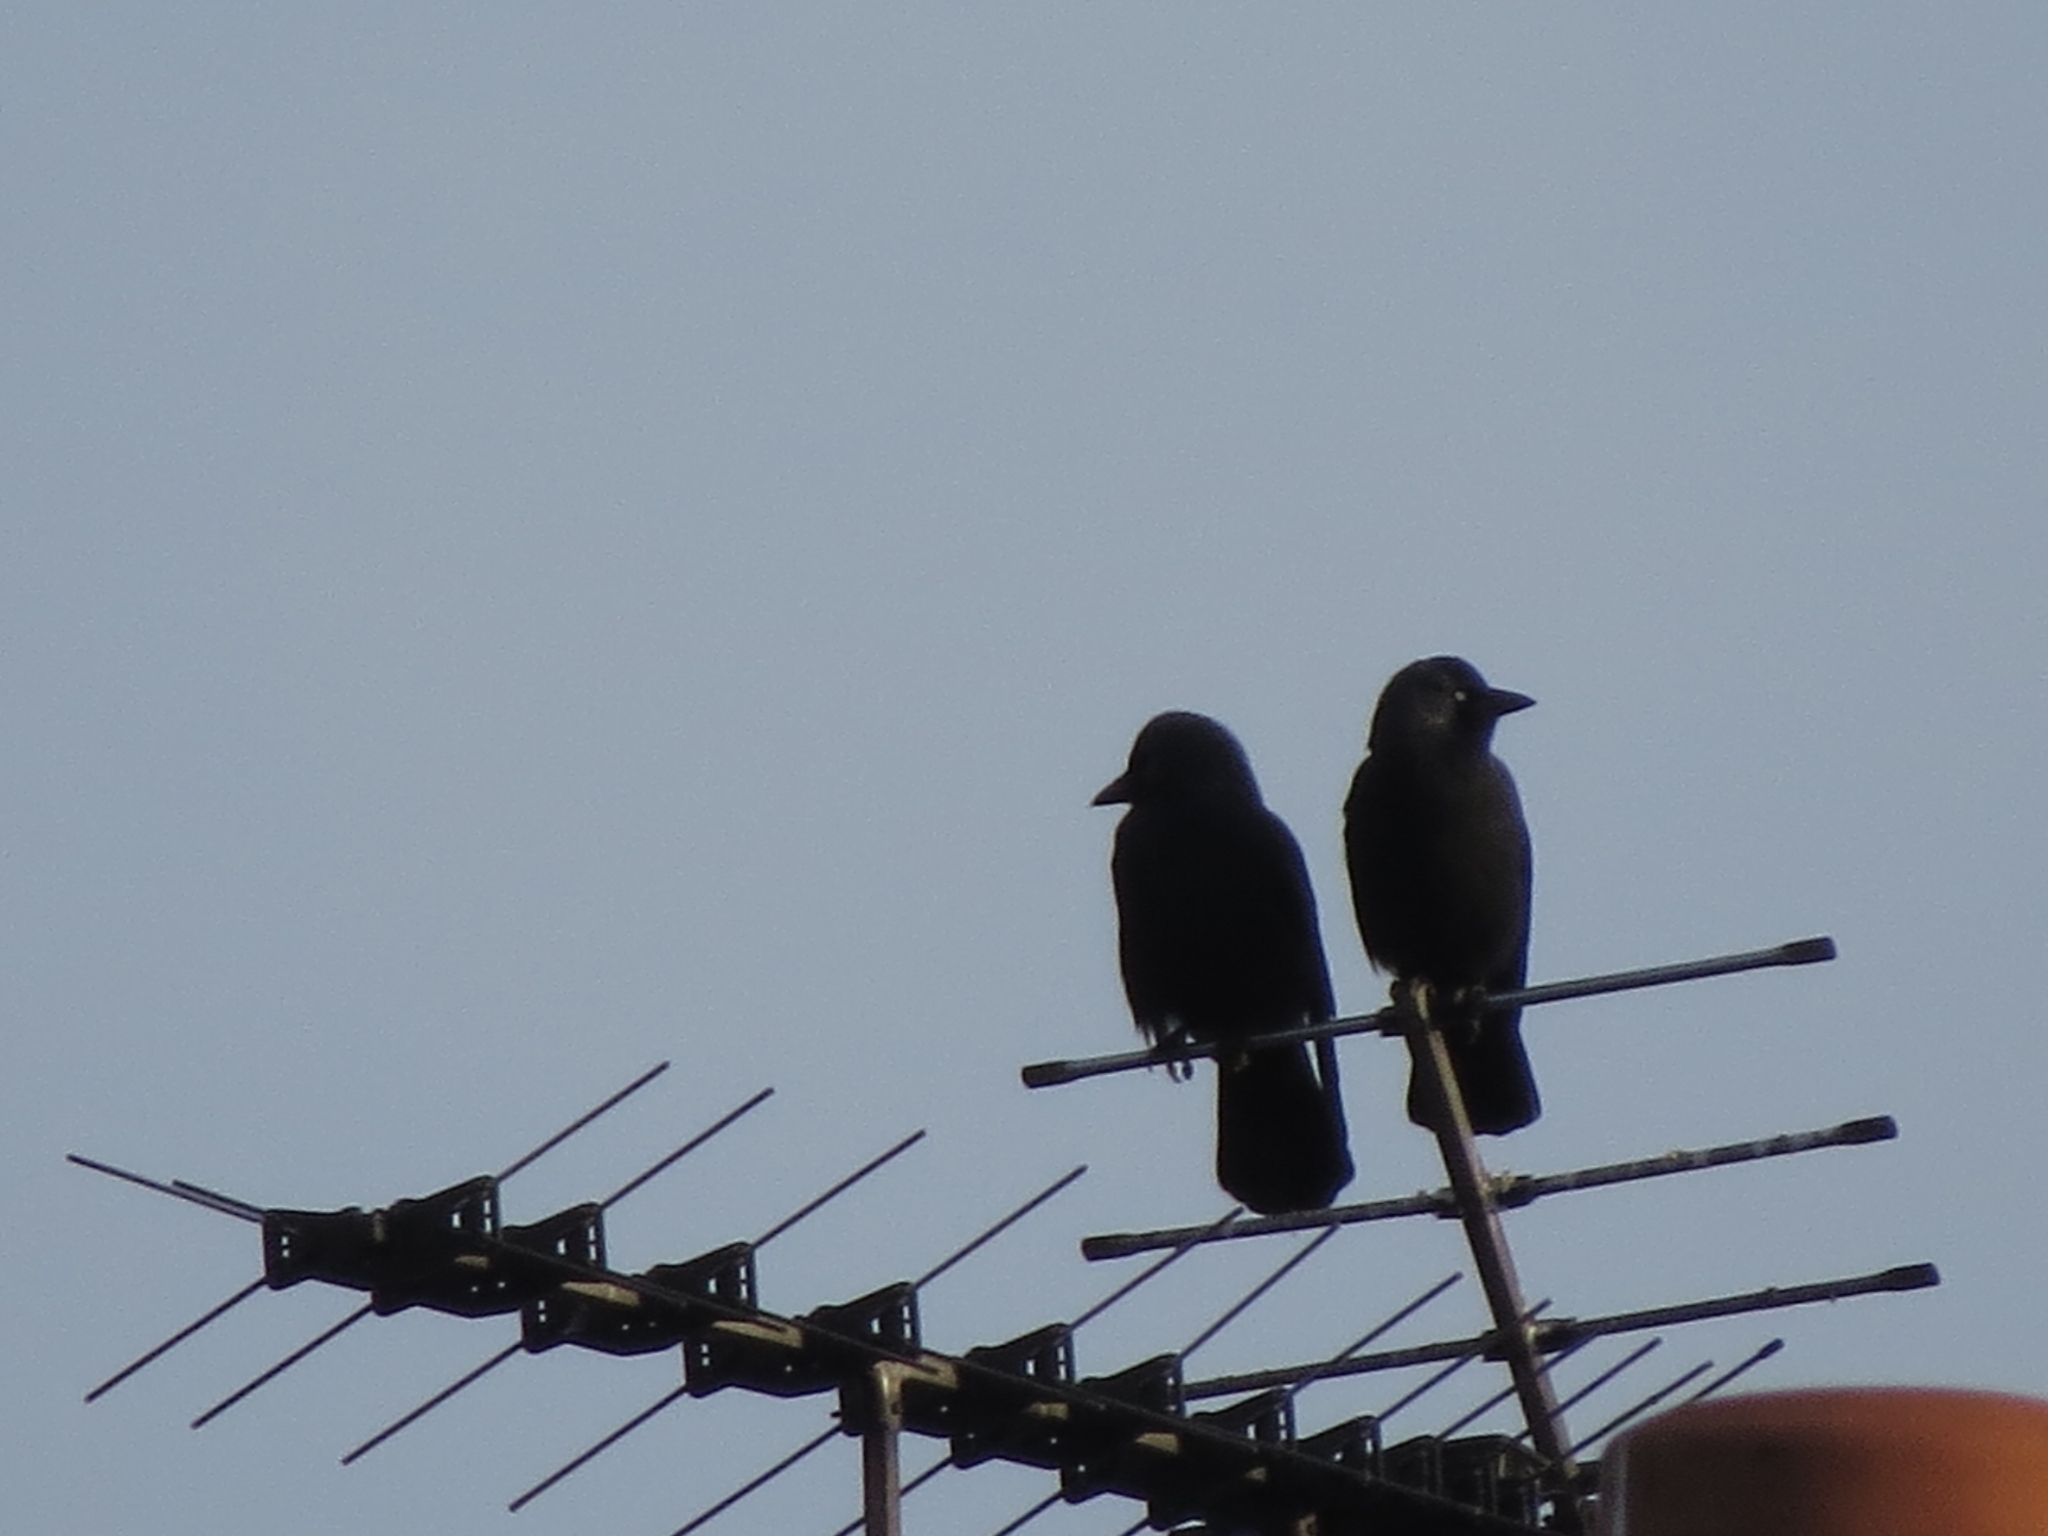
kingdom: Animalia
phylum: Chordata
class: Aves
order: Passeriformes
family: Corvidae
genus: Coloeus
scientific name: Coloeus monedula
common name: Western jackdaw
